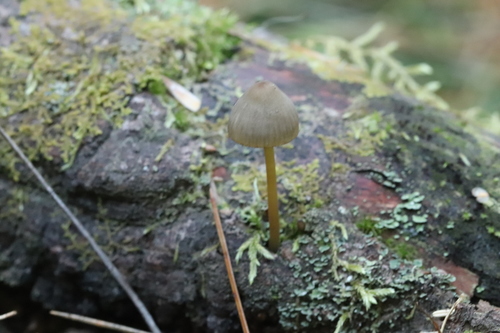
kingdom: Fungi
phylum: Basidiomycota
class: Agaricomycetes
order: Agaricales
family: Mycenaceae
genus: Mycena
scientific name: Mycena
